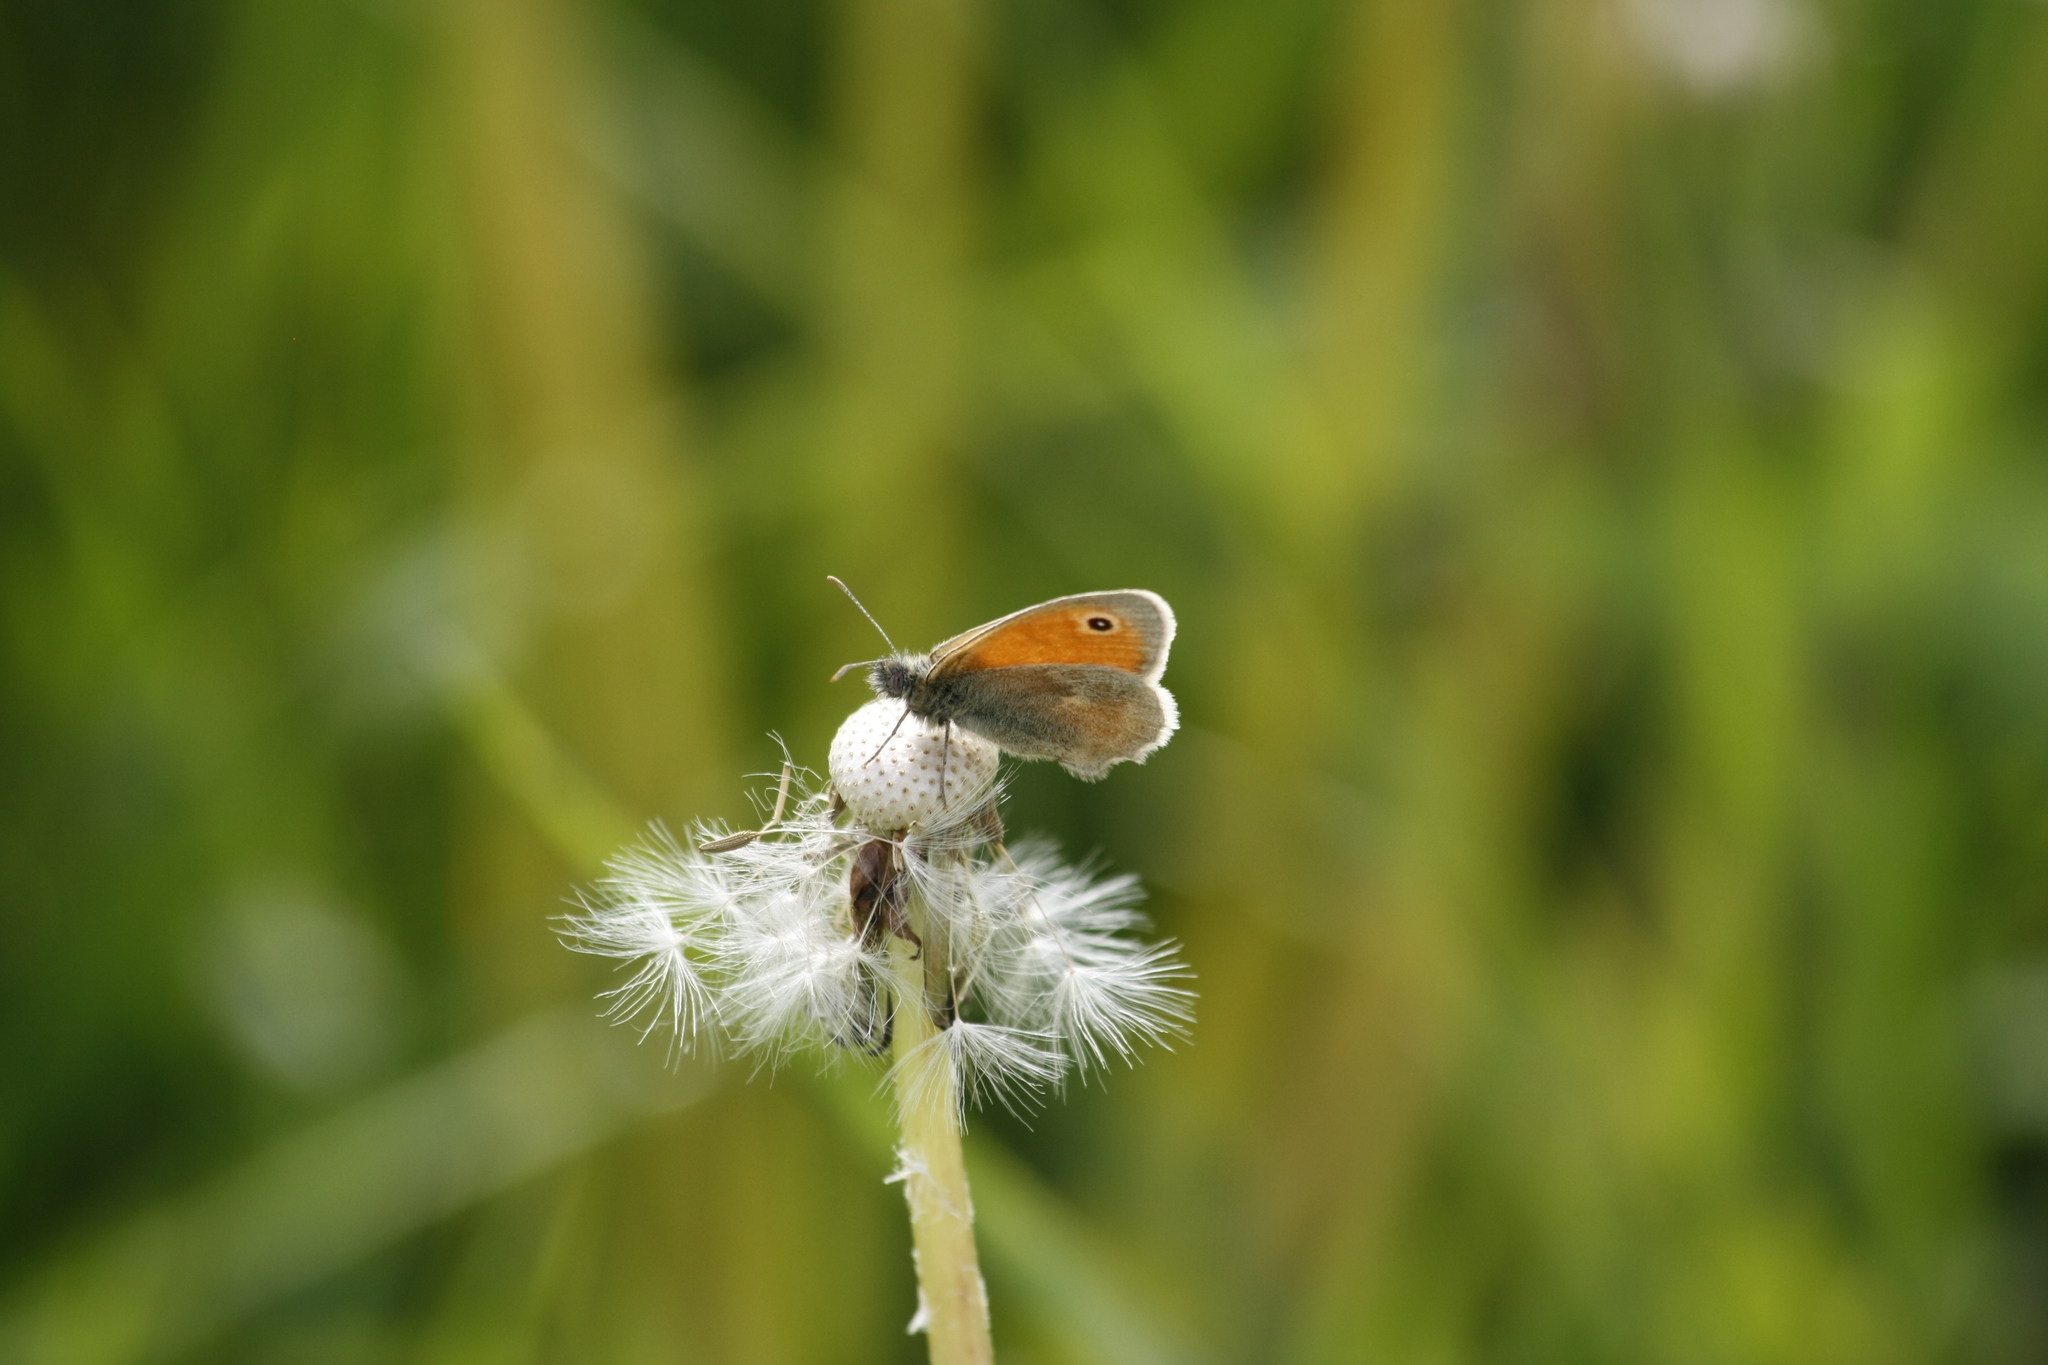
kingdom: Animalia
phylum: Arthropoda
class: Insecta
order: Lepidoptera
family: Nymphalidae
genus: Coenonympha
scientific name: Coenonympha pamphilus
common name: Small heath
